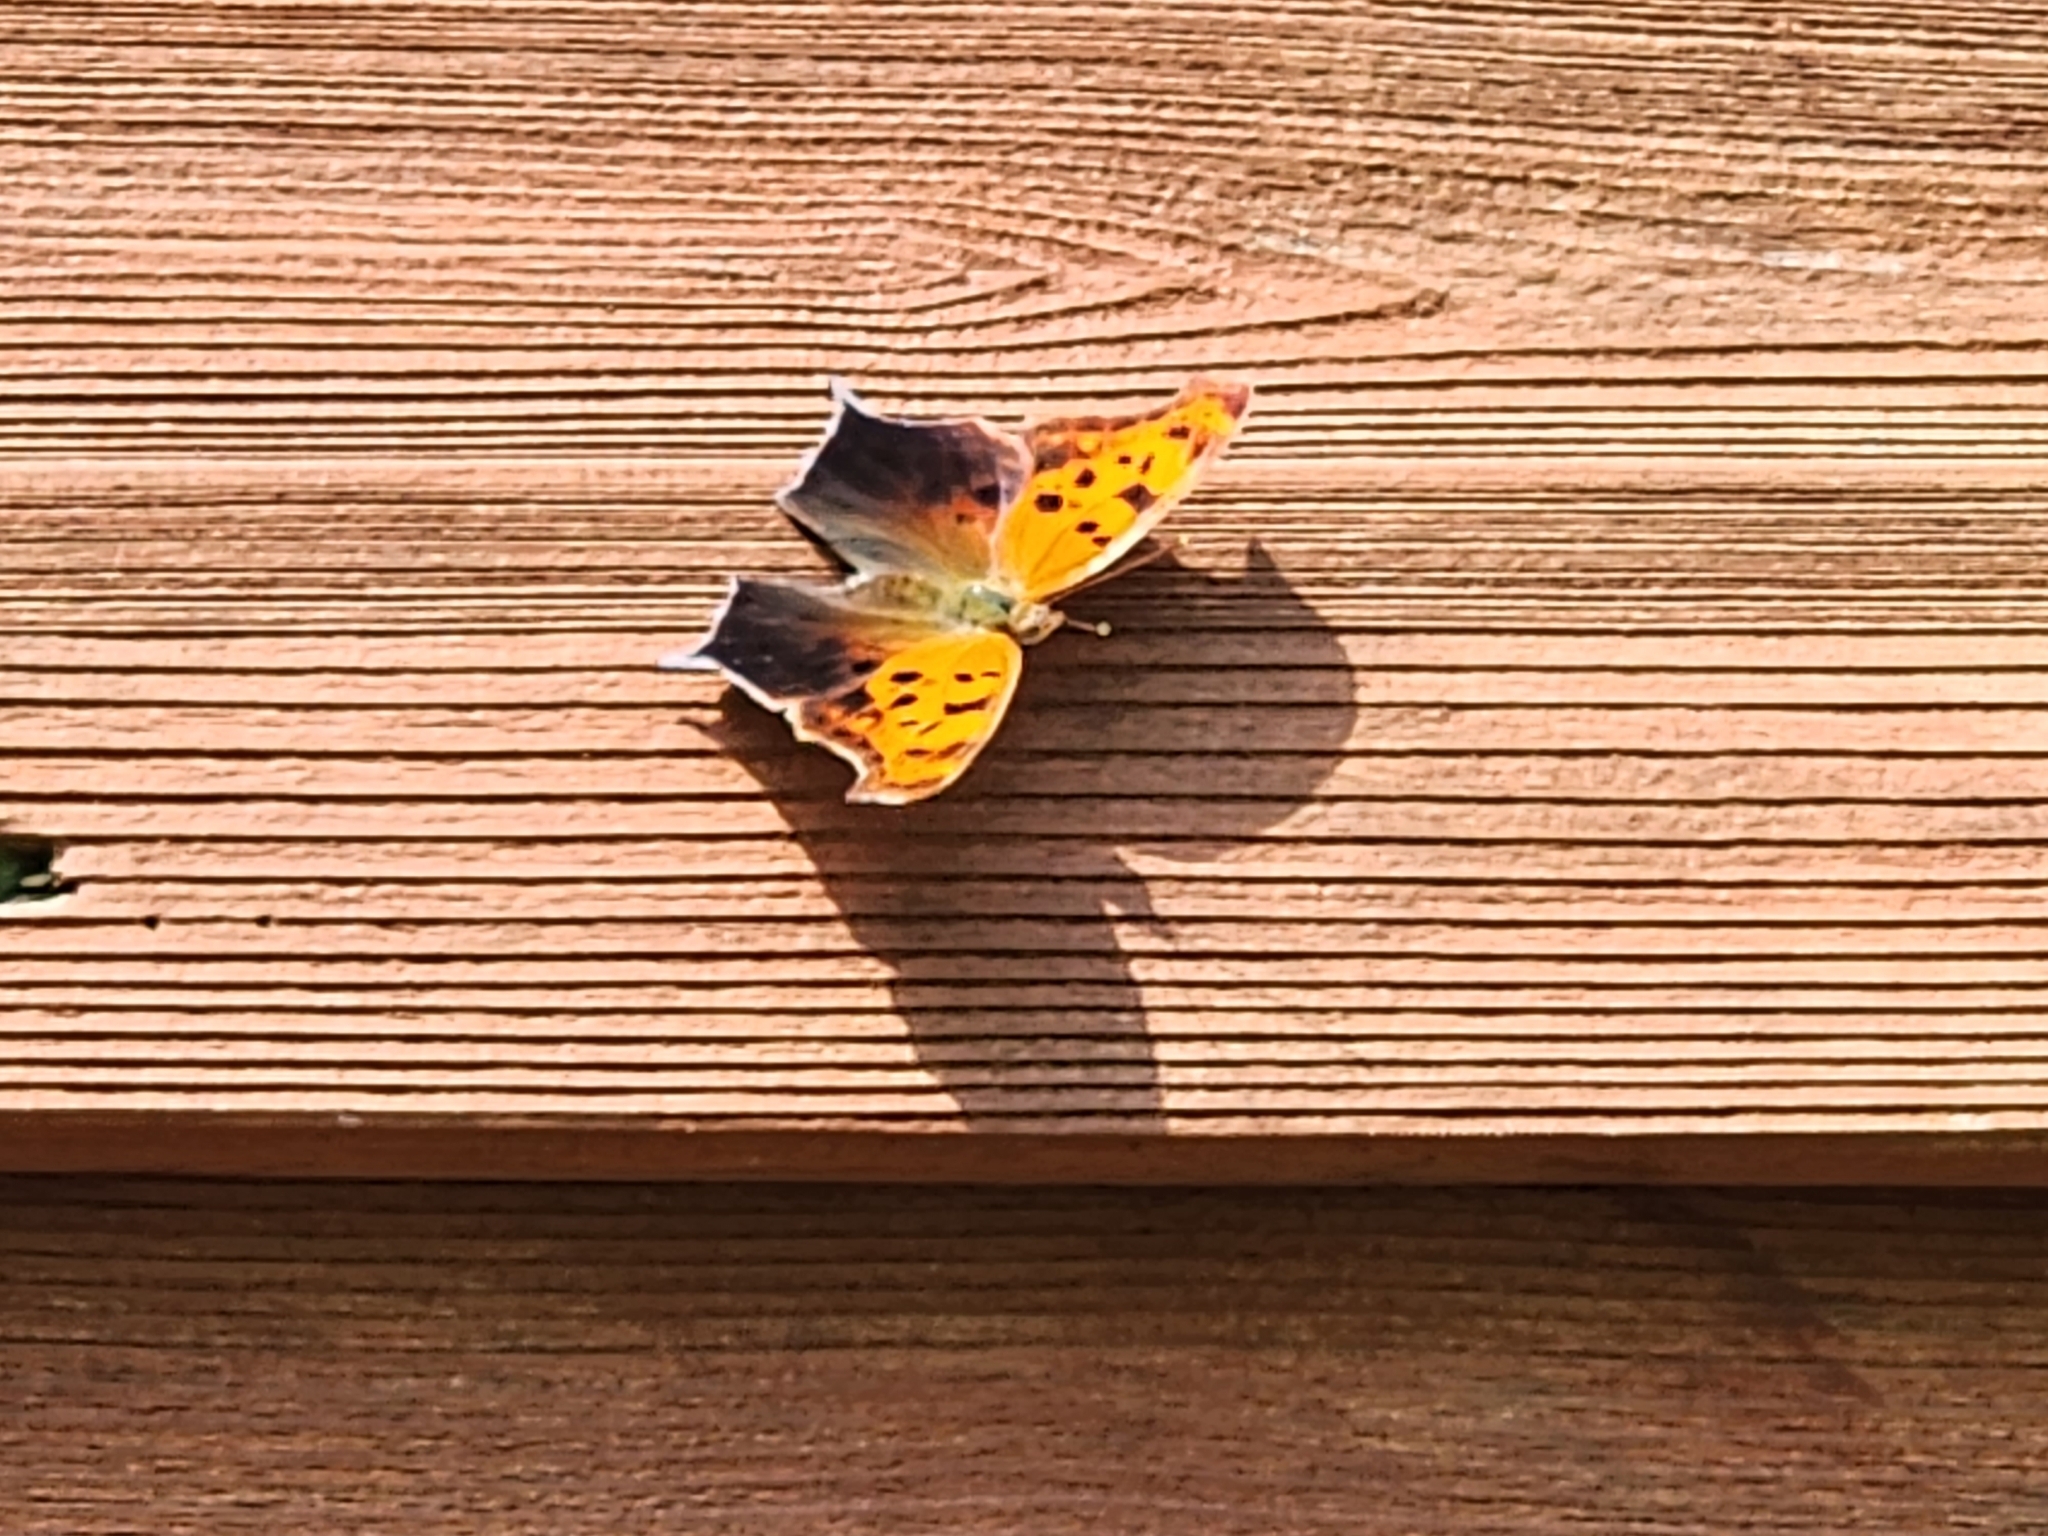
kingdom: Animalia
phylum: Arthropoda
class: Insecta
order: Lepidoptera
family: Nymphalidae
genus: Polygonia
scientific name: Polygonia interrogationis
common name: Question mark
